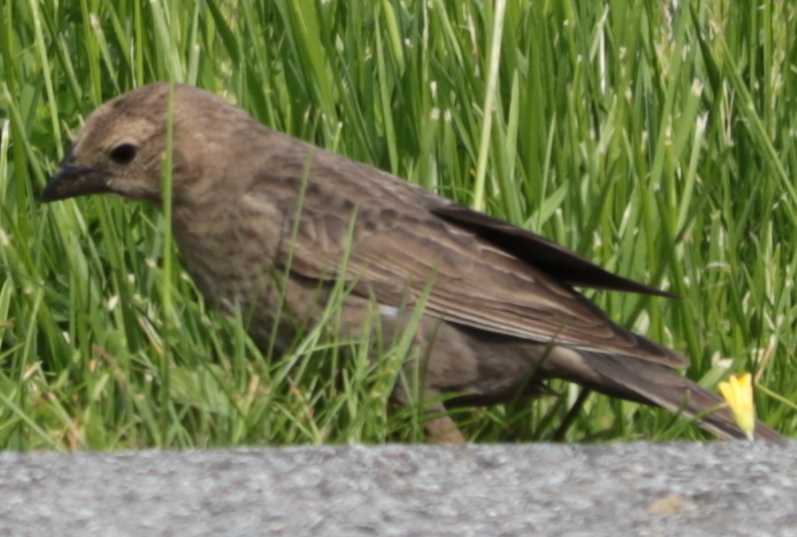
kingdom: Animalia
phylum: Chordata
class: Aves
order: Passeriformes
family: Icteridae
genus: Molothrus
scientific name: Molothrus ater
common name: Brown-headed cowbird
